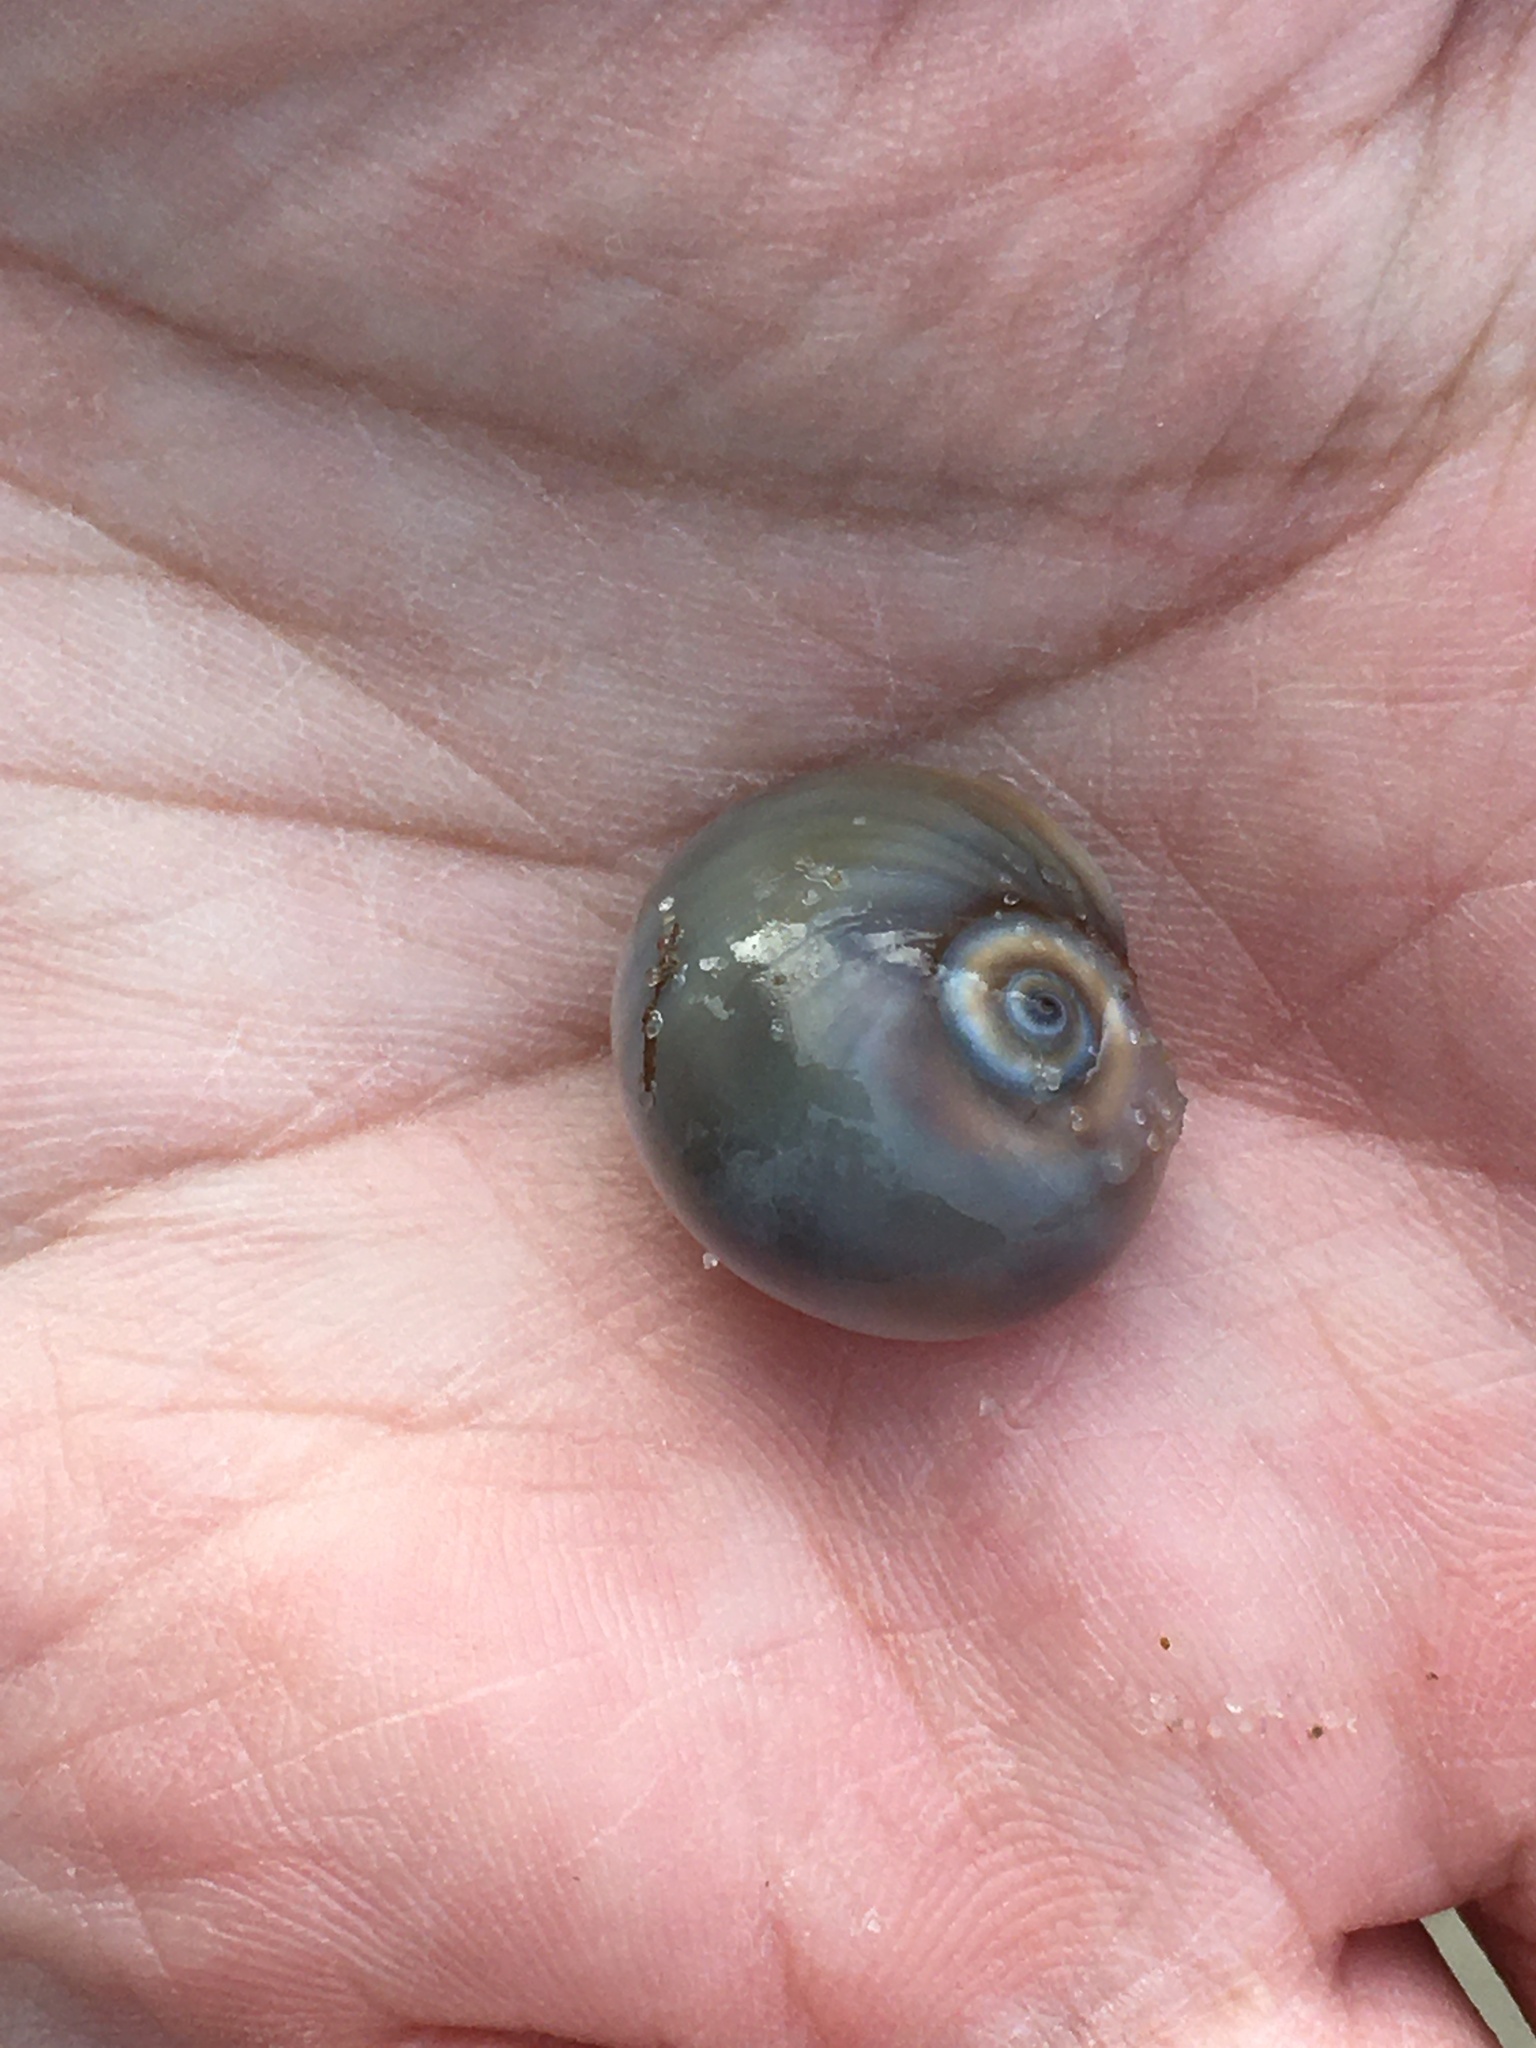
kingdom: Animalia
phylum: Mollusca
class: Gastropoda
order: Littorinimorpha
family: Naticidae
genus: Neverita
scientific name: Neverita duplicata
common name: Lobed moonsnail
